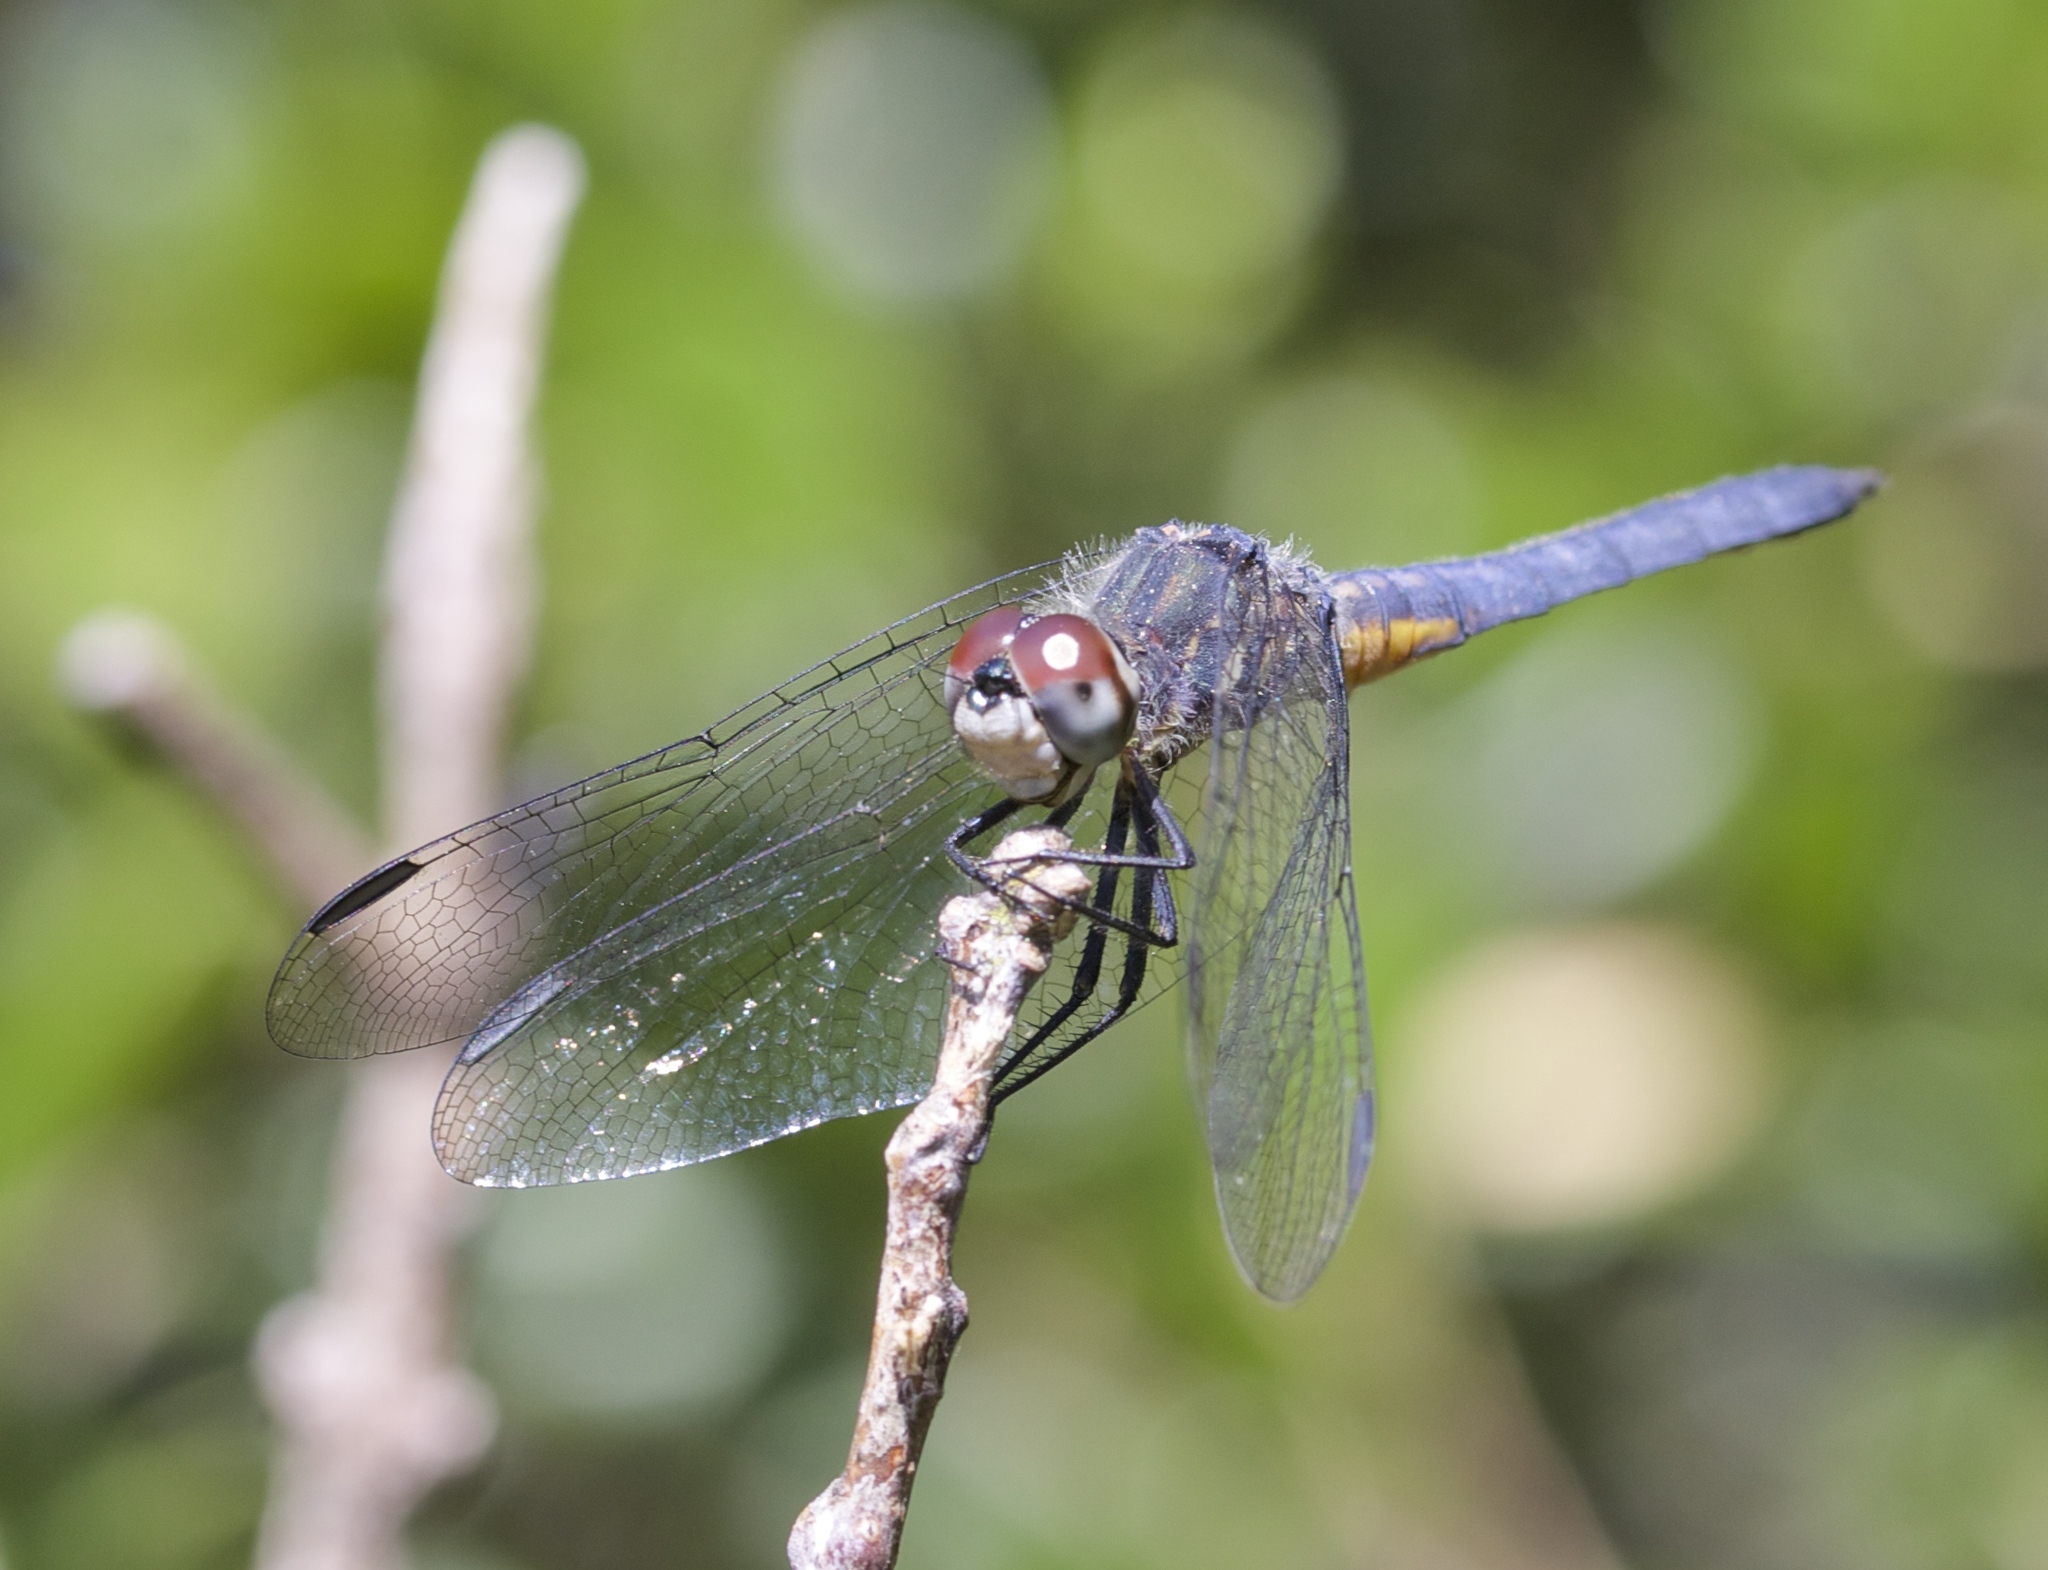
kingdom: Animalia
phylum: Arthropoda
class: Insecta
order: Odonata
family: Libellulidae
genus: Pachydiplax
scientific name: Pachydiplax longipennis
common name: Blue dasher
